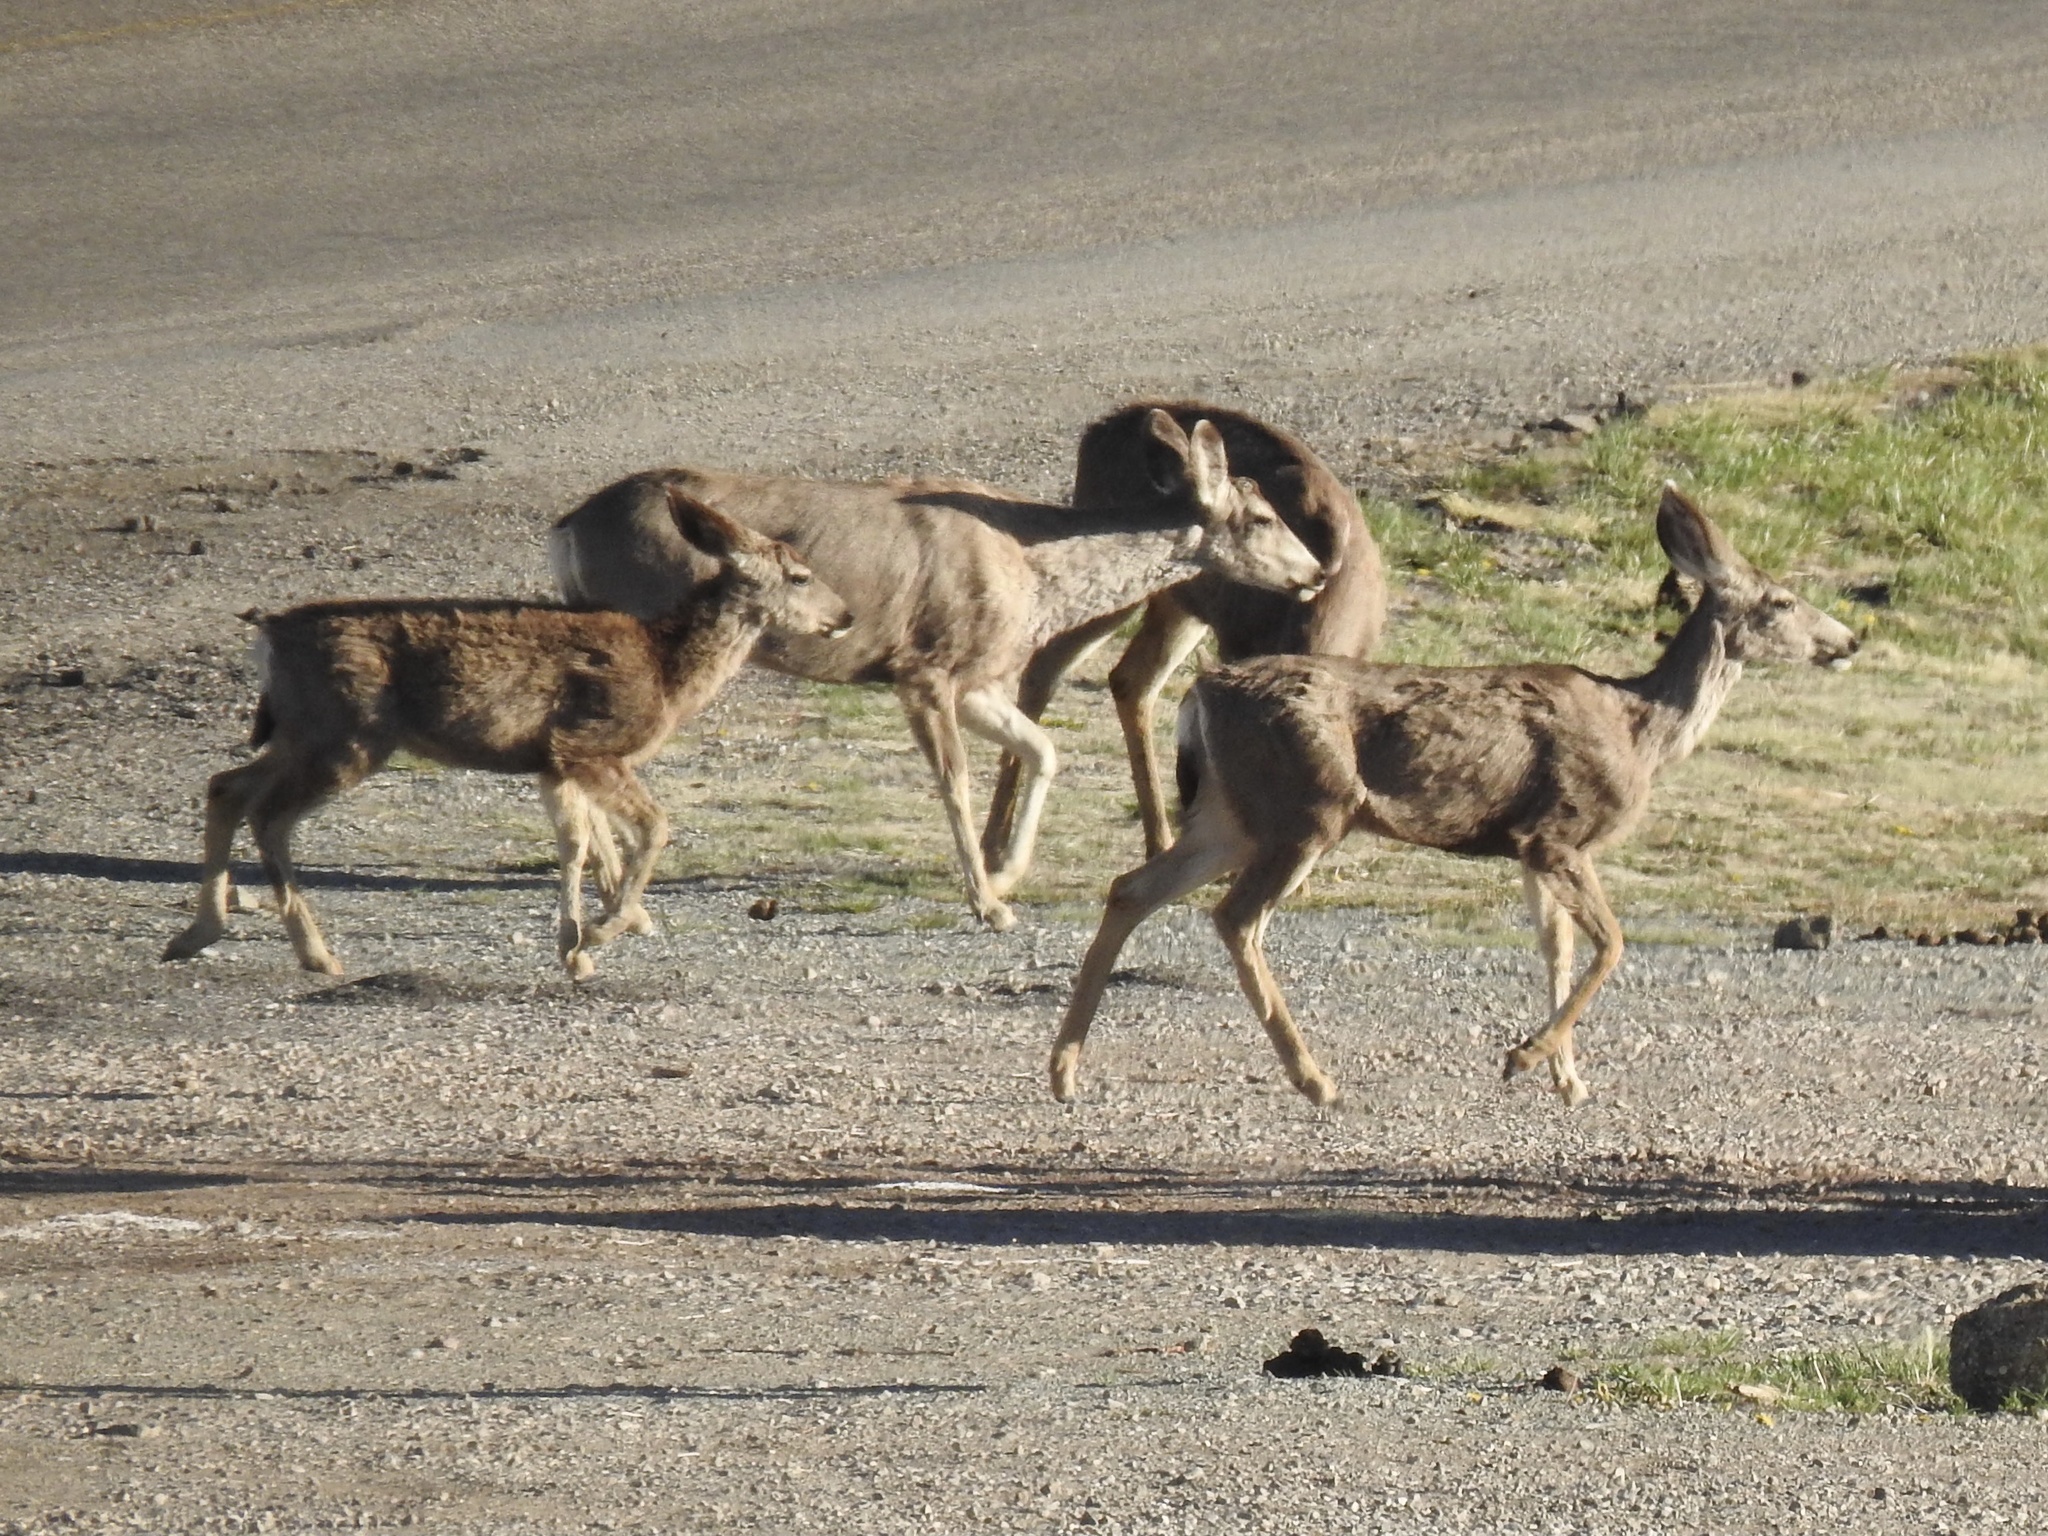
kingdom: Animalia
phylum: Chordata
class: Mammalia
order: Artiodactyla
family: Cervidae
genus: Odocoileus
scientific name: Odocoileus hemionus
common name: Mule deer
